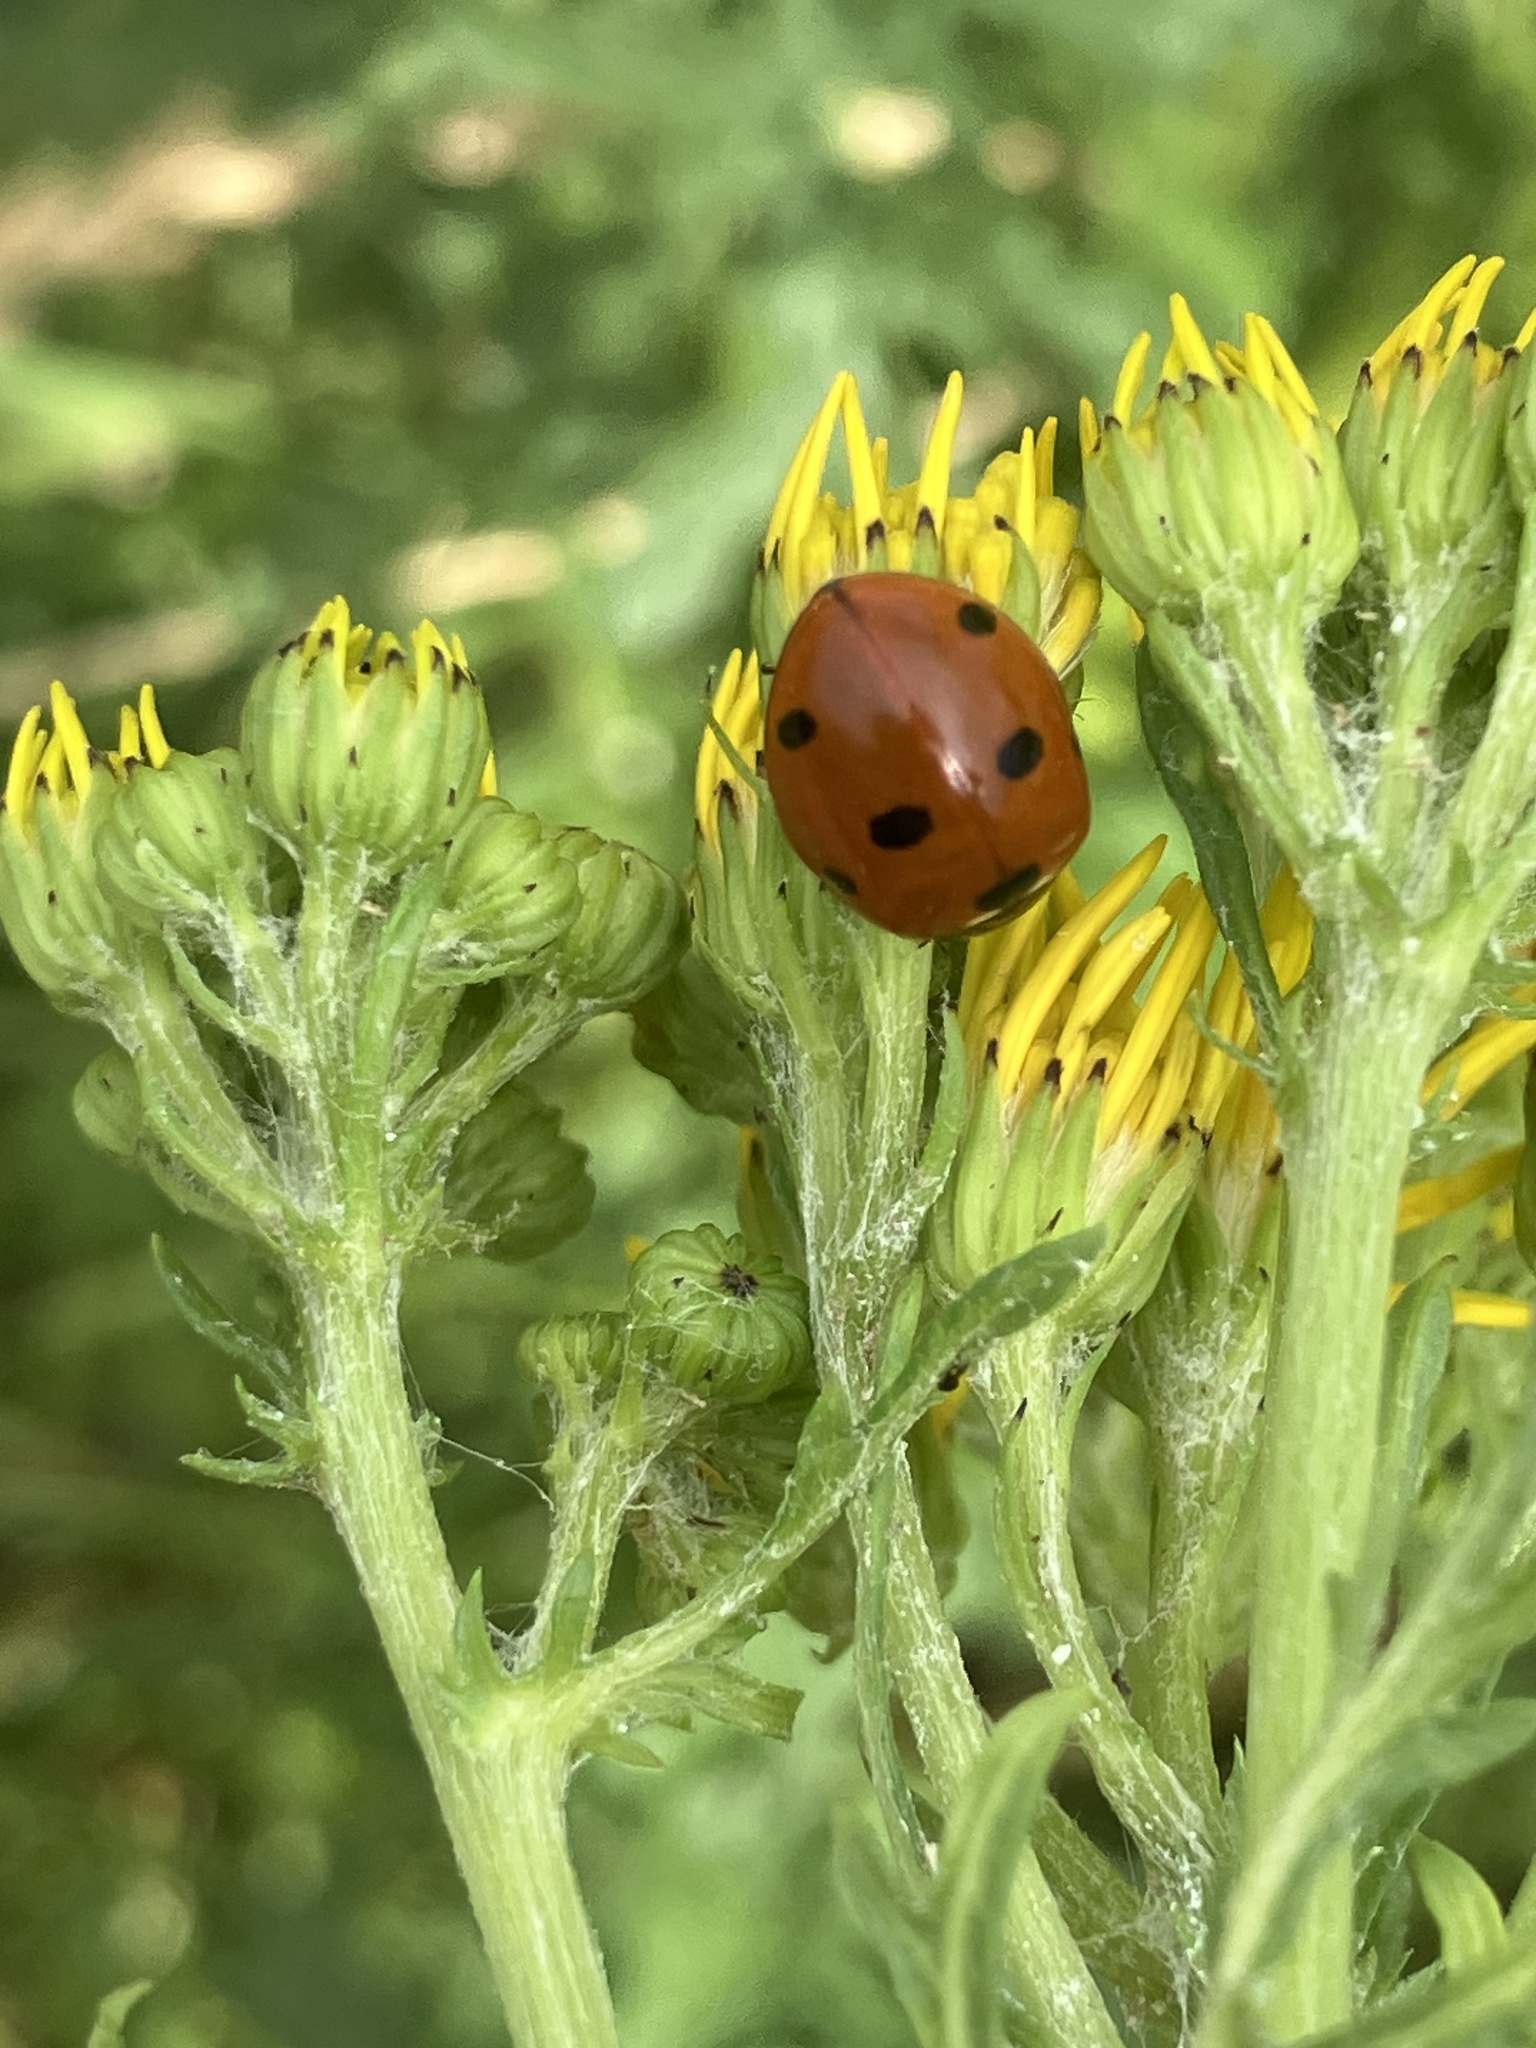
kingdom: Animalia
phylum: Arthropoda
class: Insecta
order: Coleoptera
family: Coccinellidae
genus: Coccinella
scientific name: Coccinella septempunctata
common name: Sevenspotted lady beetle
